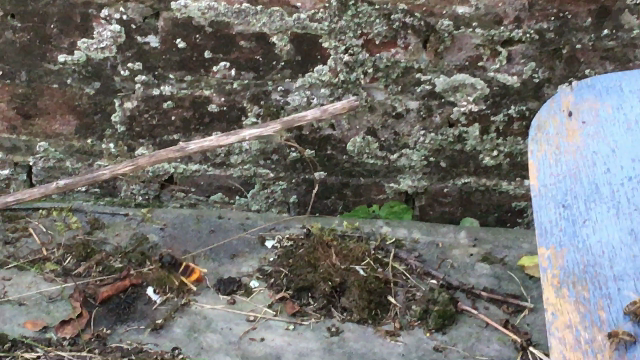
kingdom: Animalia
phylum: Arthropoda
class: Insecta
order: Hymenoptera
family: Vespidae
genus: Vespa
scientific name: Vespa velutina
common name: Asian hornet
